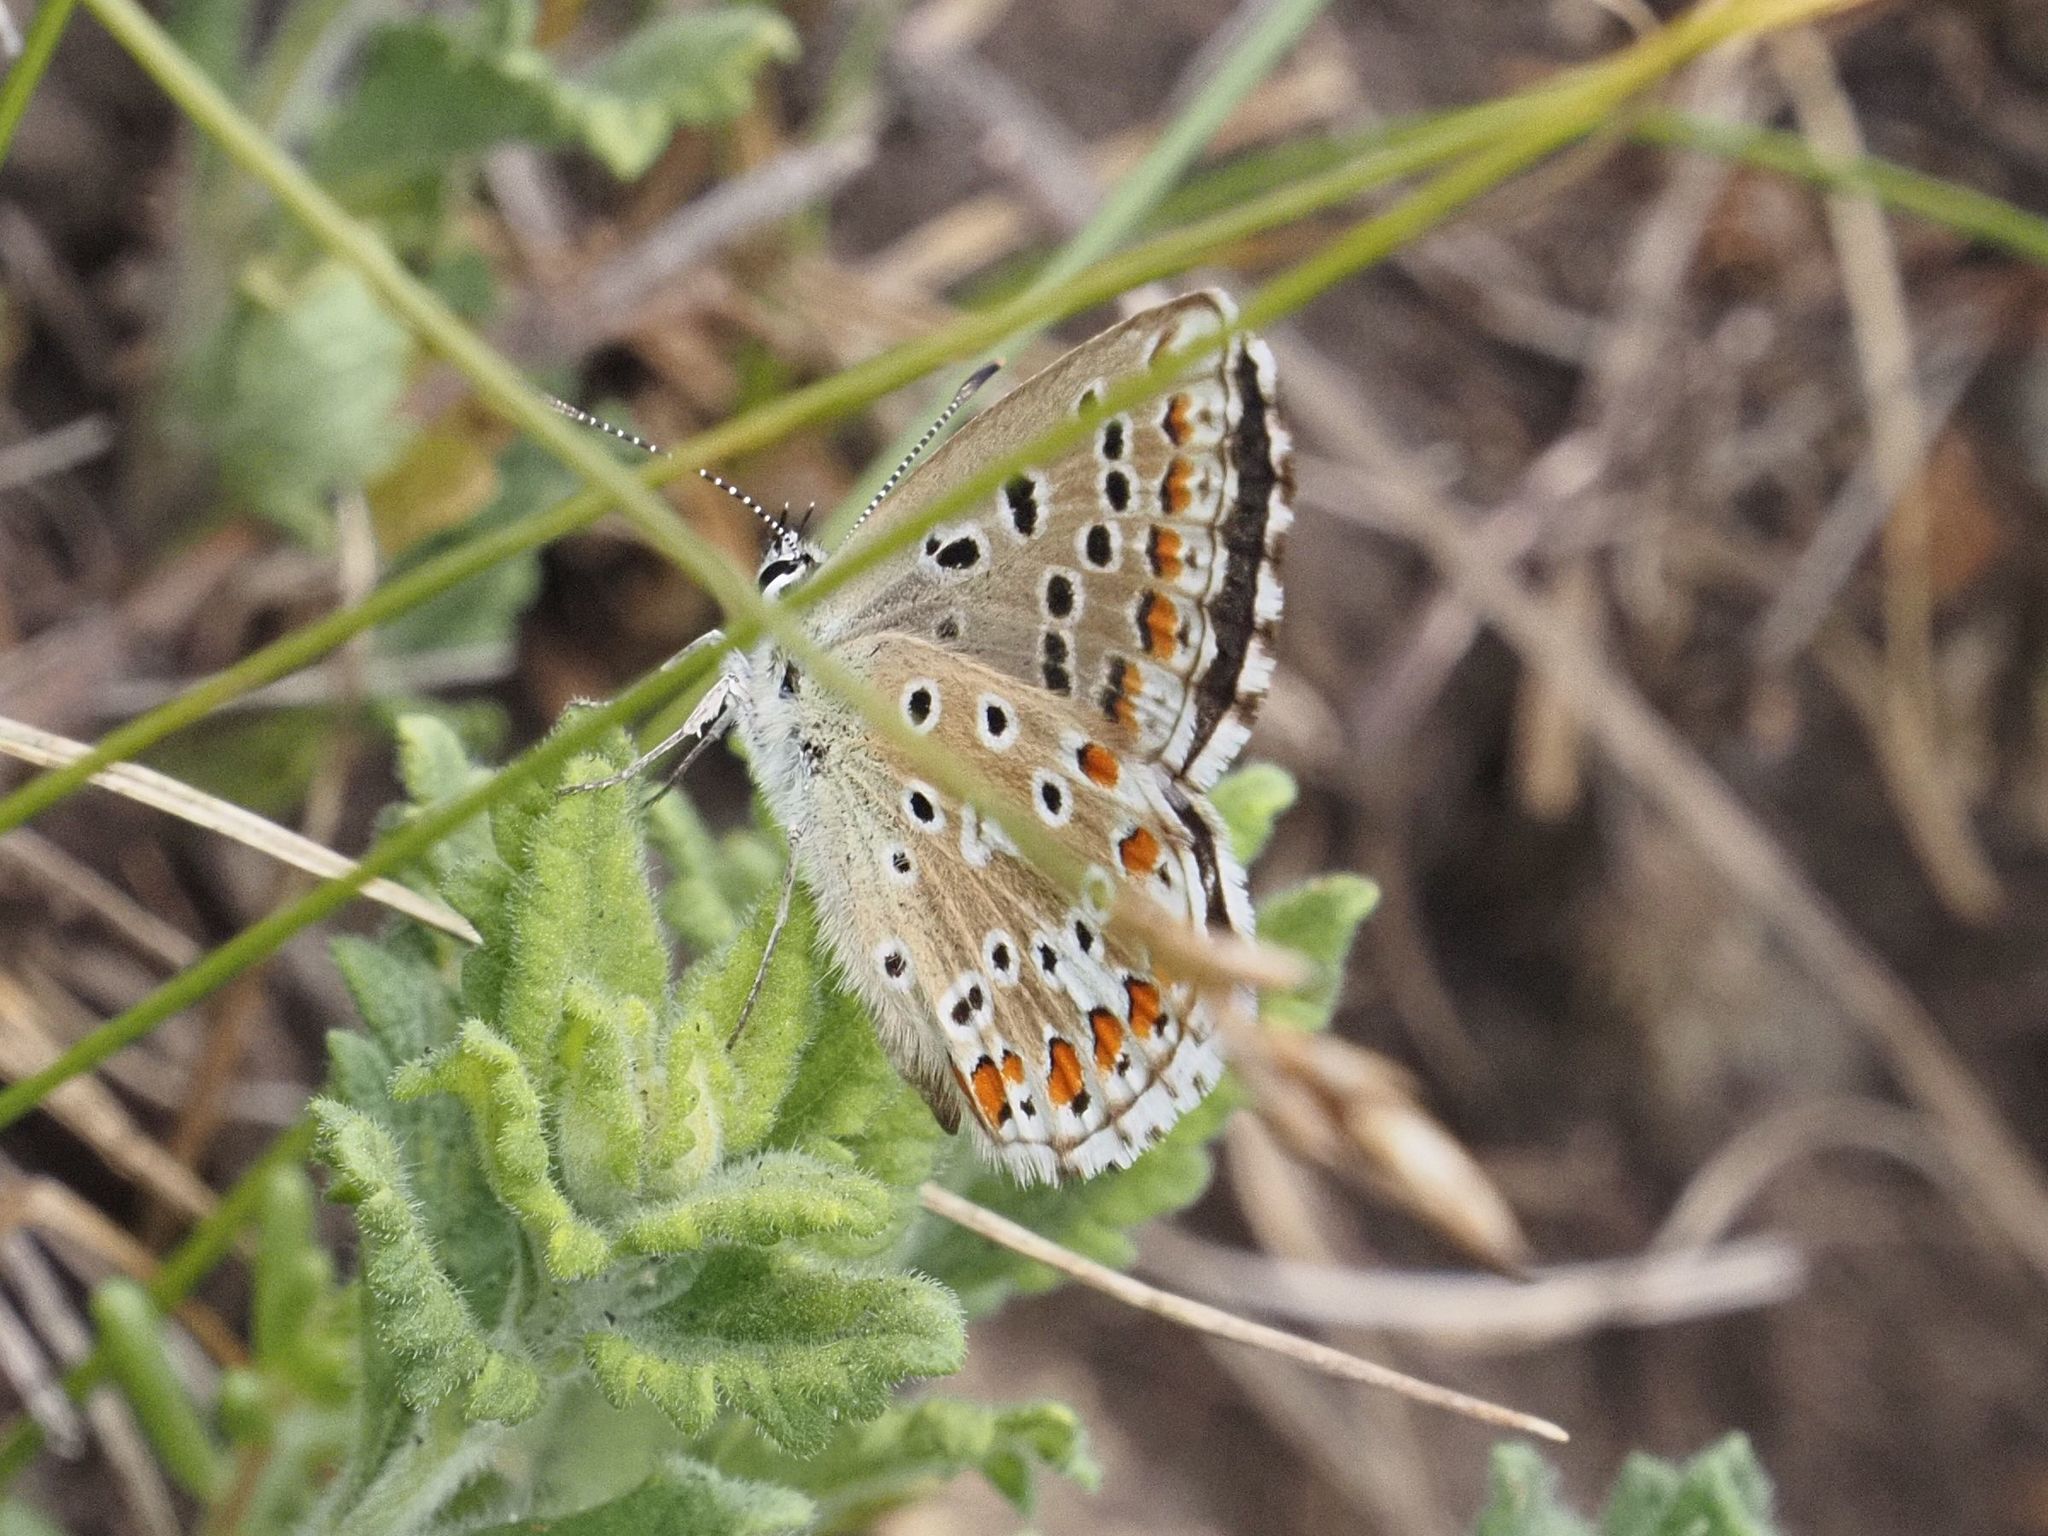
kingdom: Animalia
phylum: Arthropoda
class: Insecta
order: Lepidoptera
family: Lycaenidae
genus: Lysandra
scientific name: Lysandra bellargus
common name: Adonis blue
